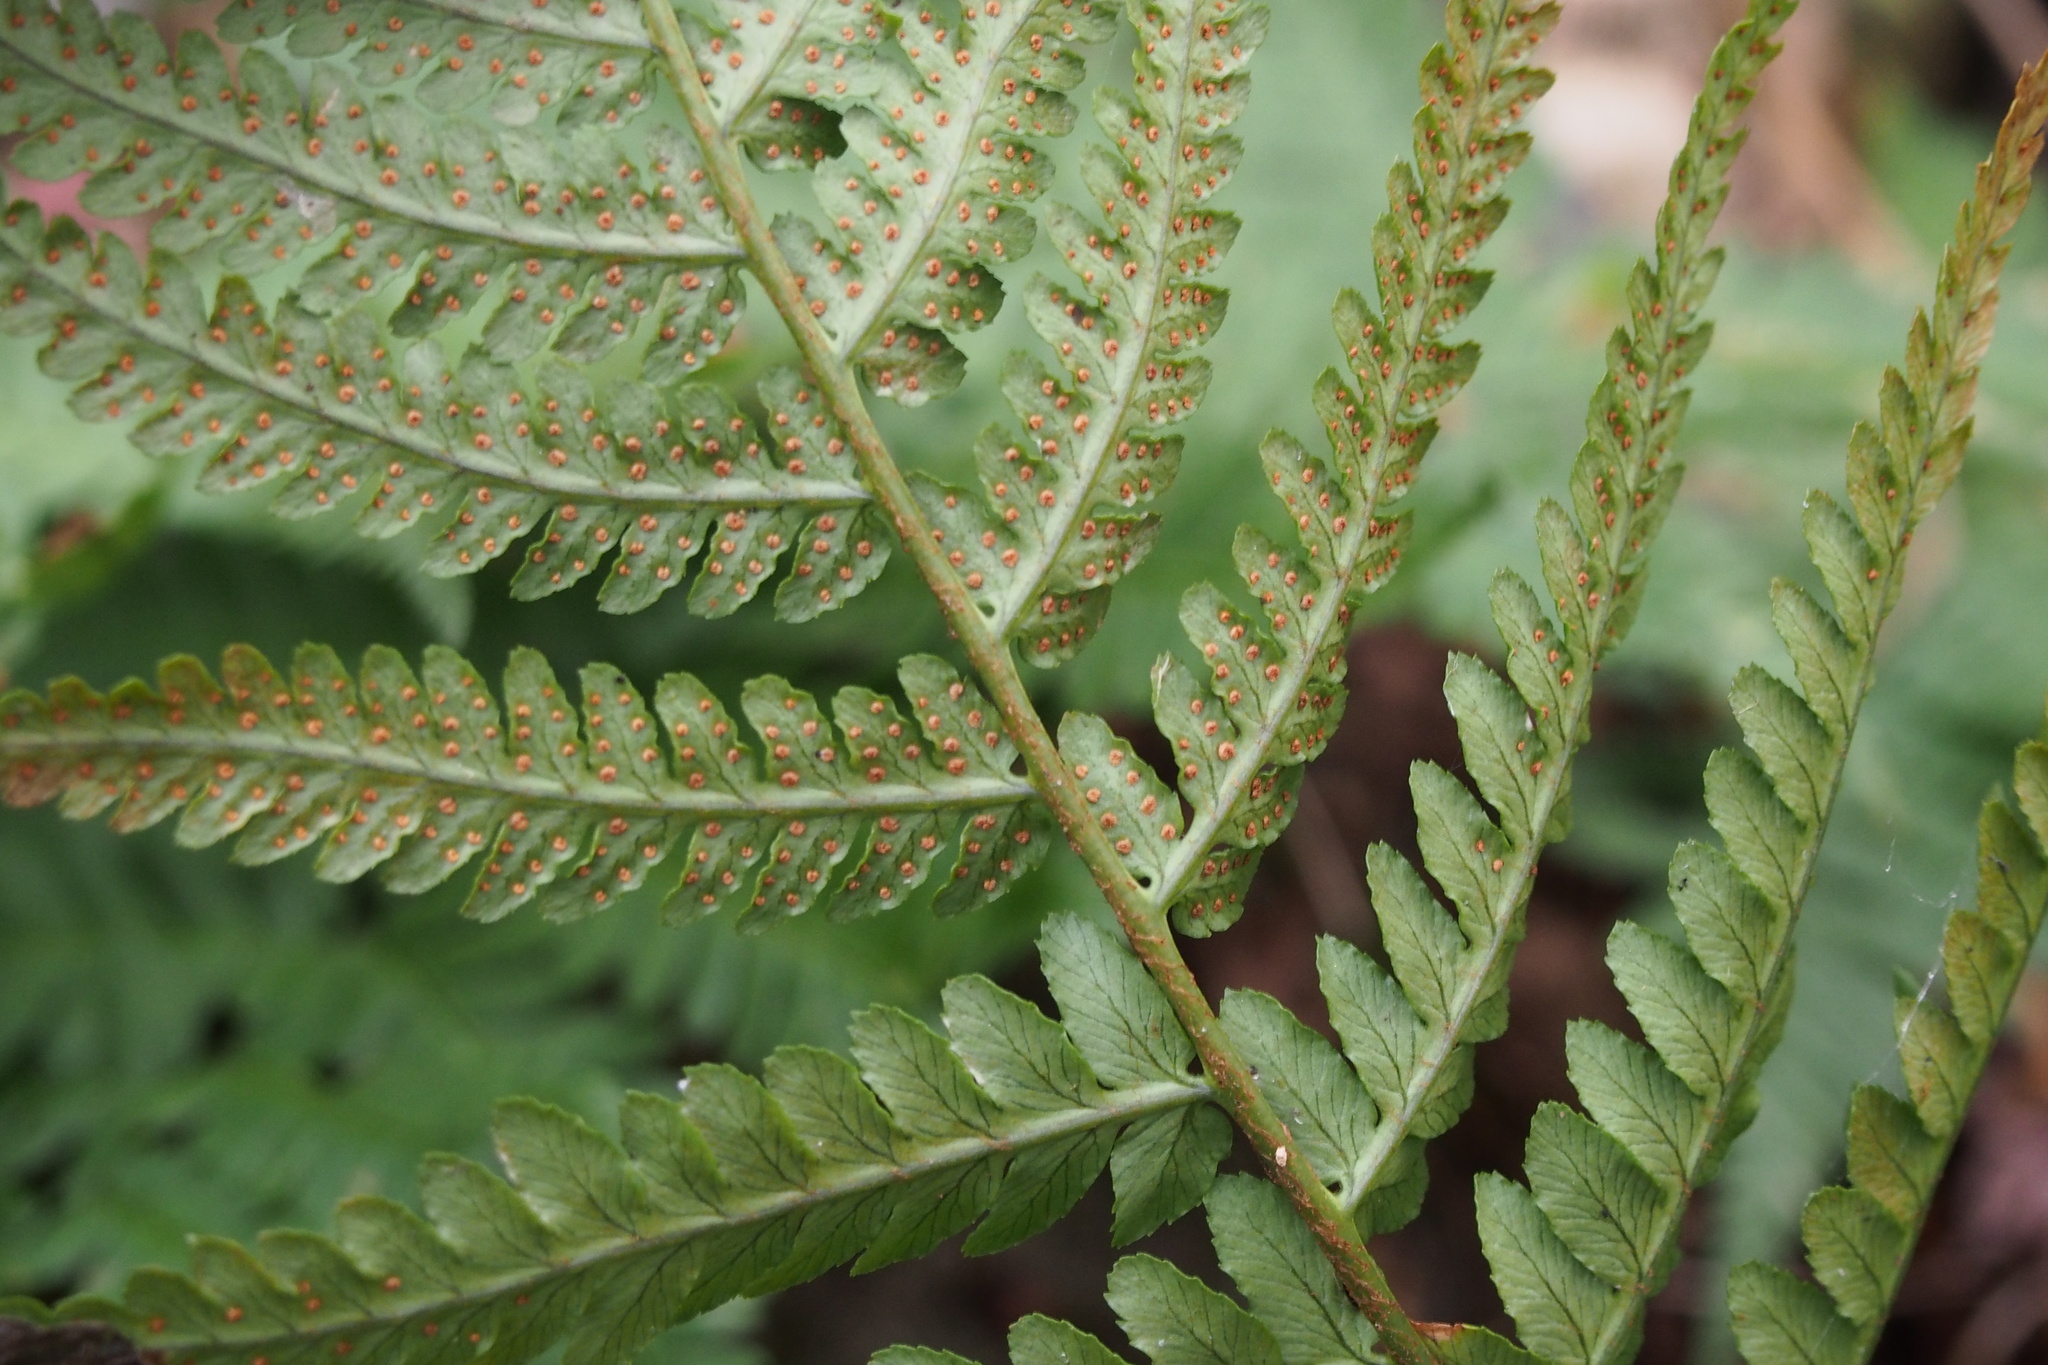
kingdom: Plantae
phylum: Tracheophyta
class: Polypodiopsida
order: Polypodiales
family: Dryopteridaceae
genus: Dryopteris
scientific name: Dryopteris uniformis
